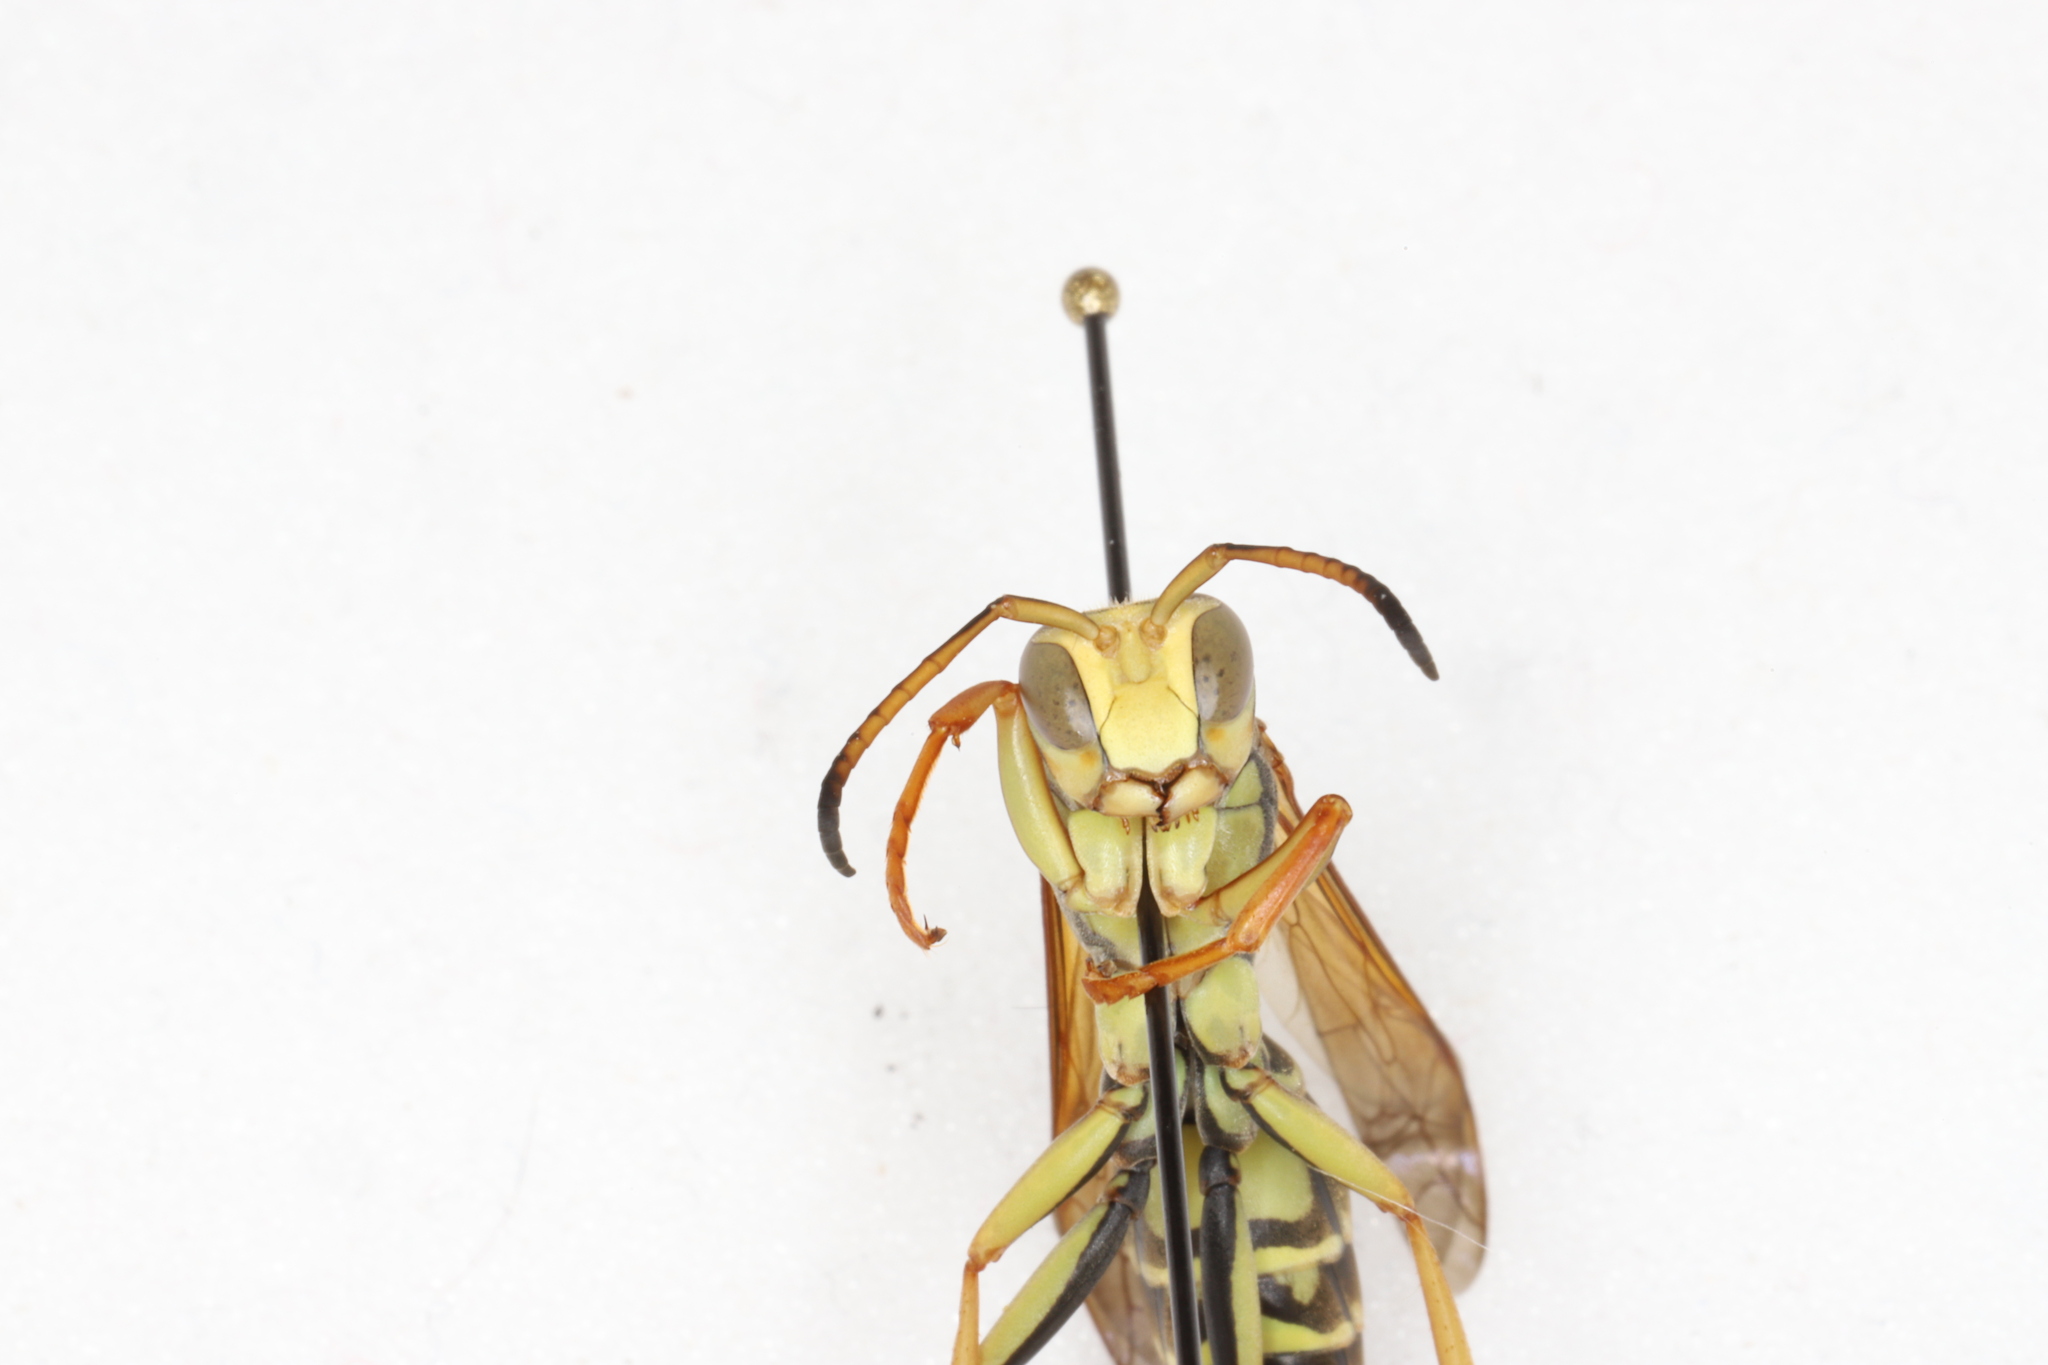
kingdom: Animalia
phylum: Arthropoda
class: Insecta
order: Hymenoptera
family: Eumenidae
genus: Polistes
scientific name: Polistes fuscatus
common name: Dark paper wasp
